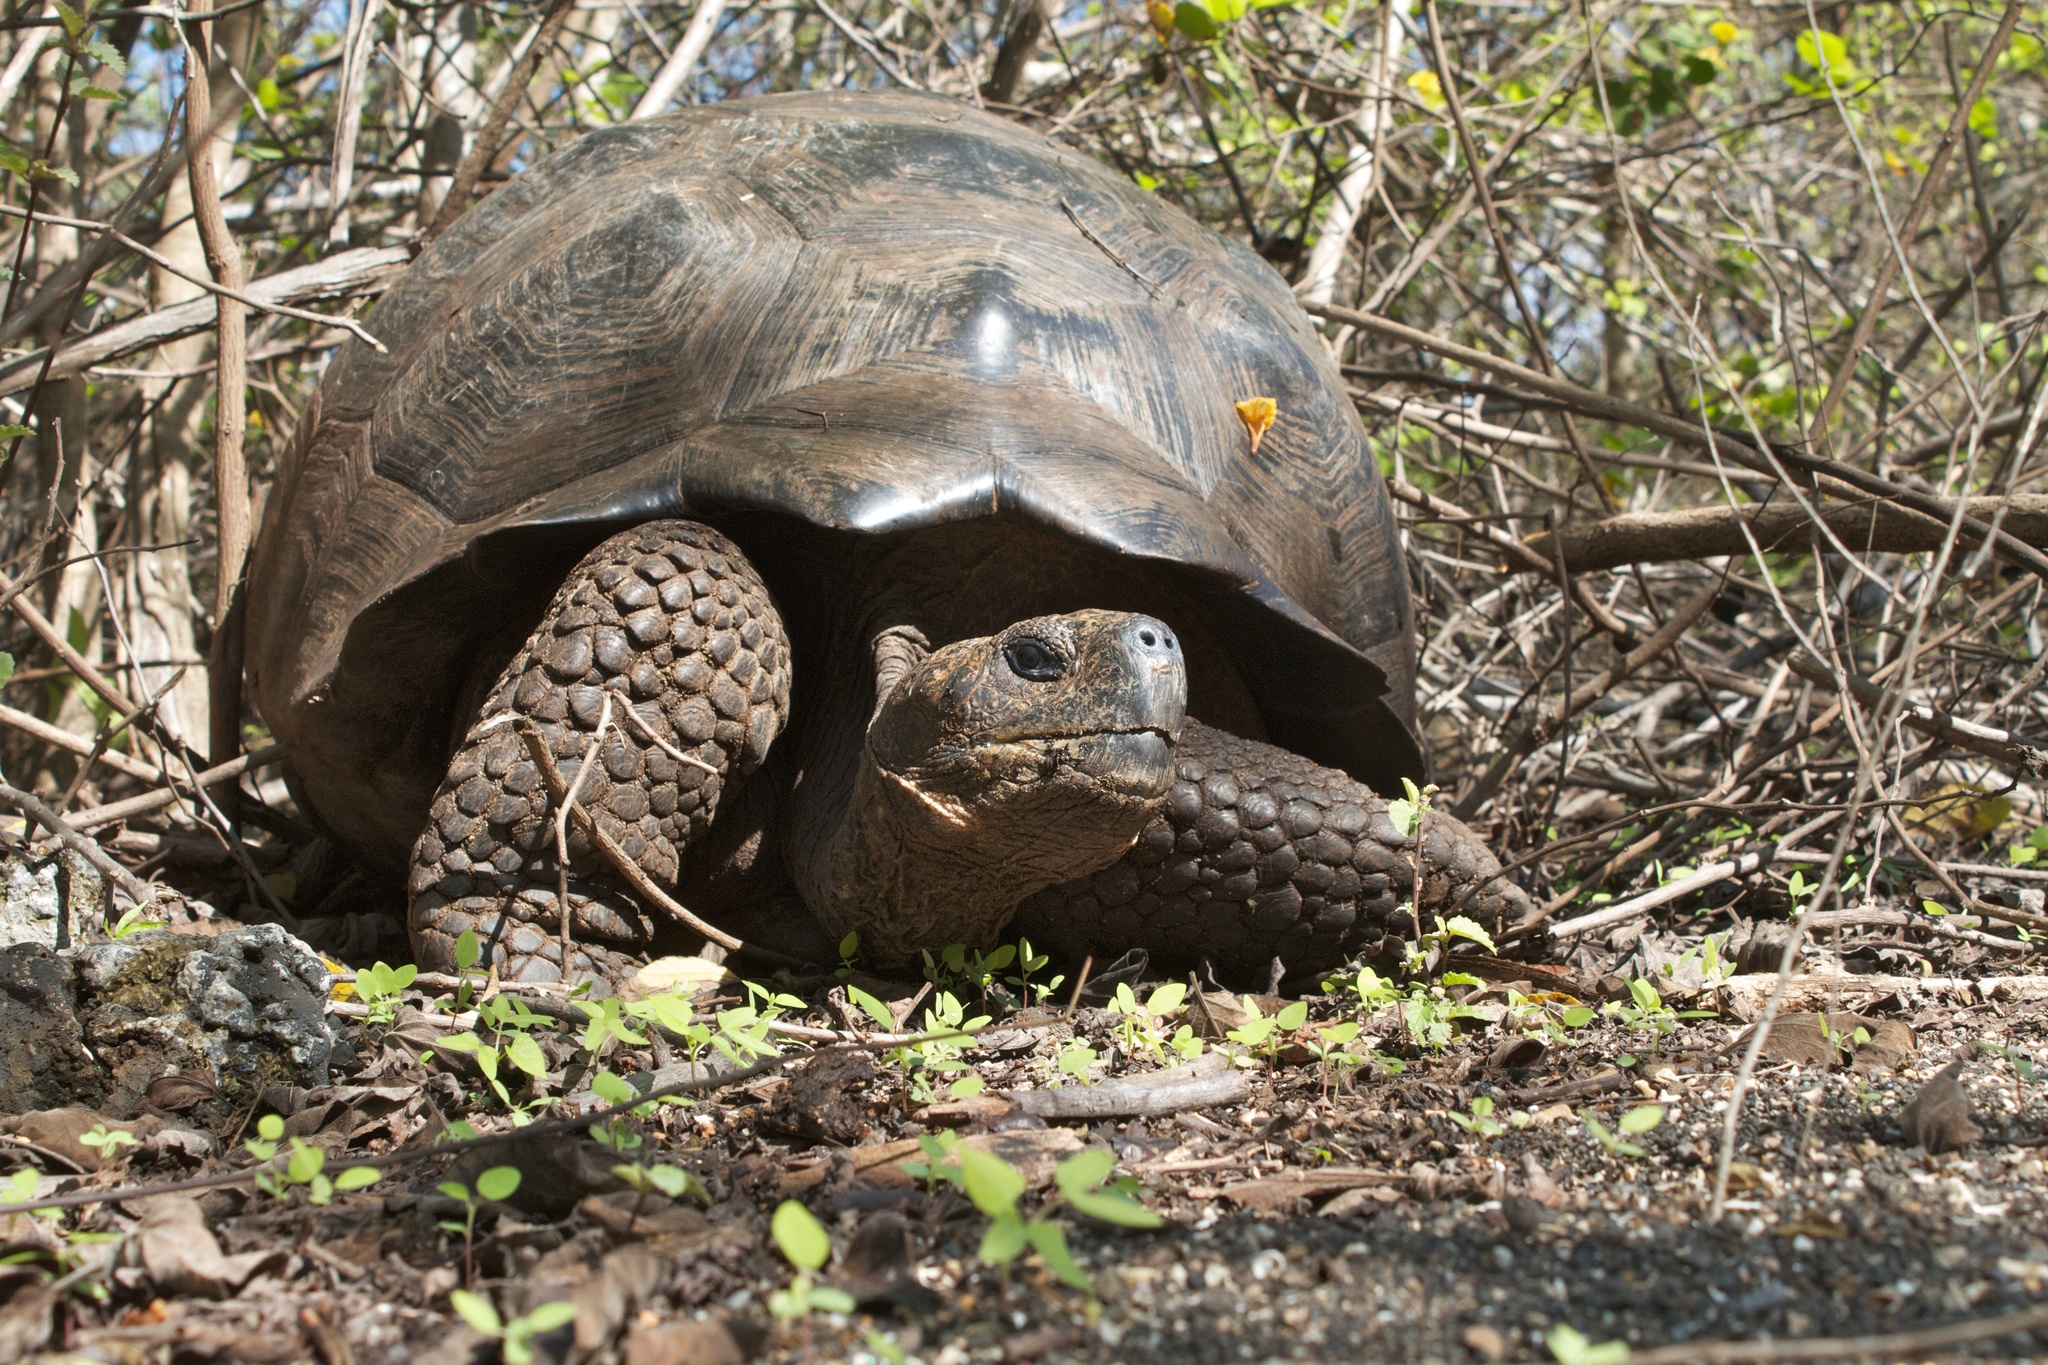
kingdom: Animalia
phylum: Chordata
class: Testudines
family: Testudinidae
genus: Chelonoidis
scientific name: Chelonoidis vandenburghi
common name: Alcedo volcano giant tortoise
